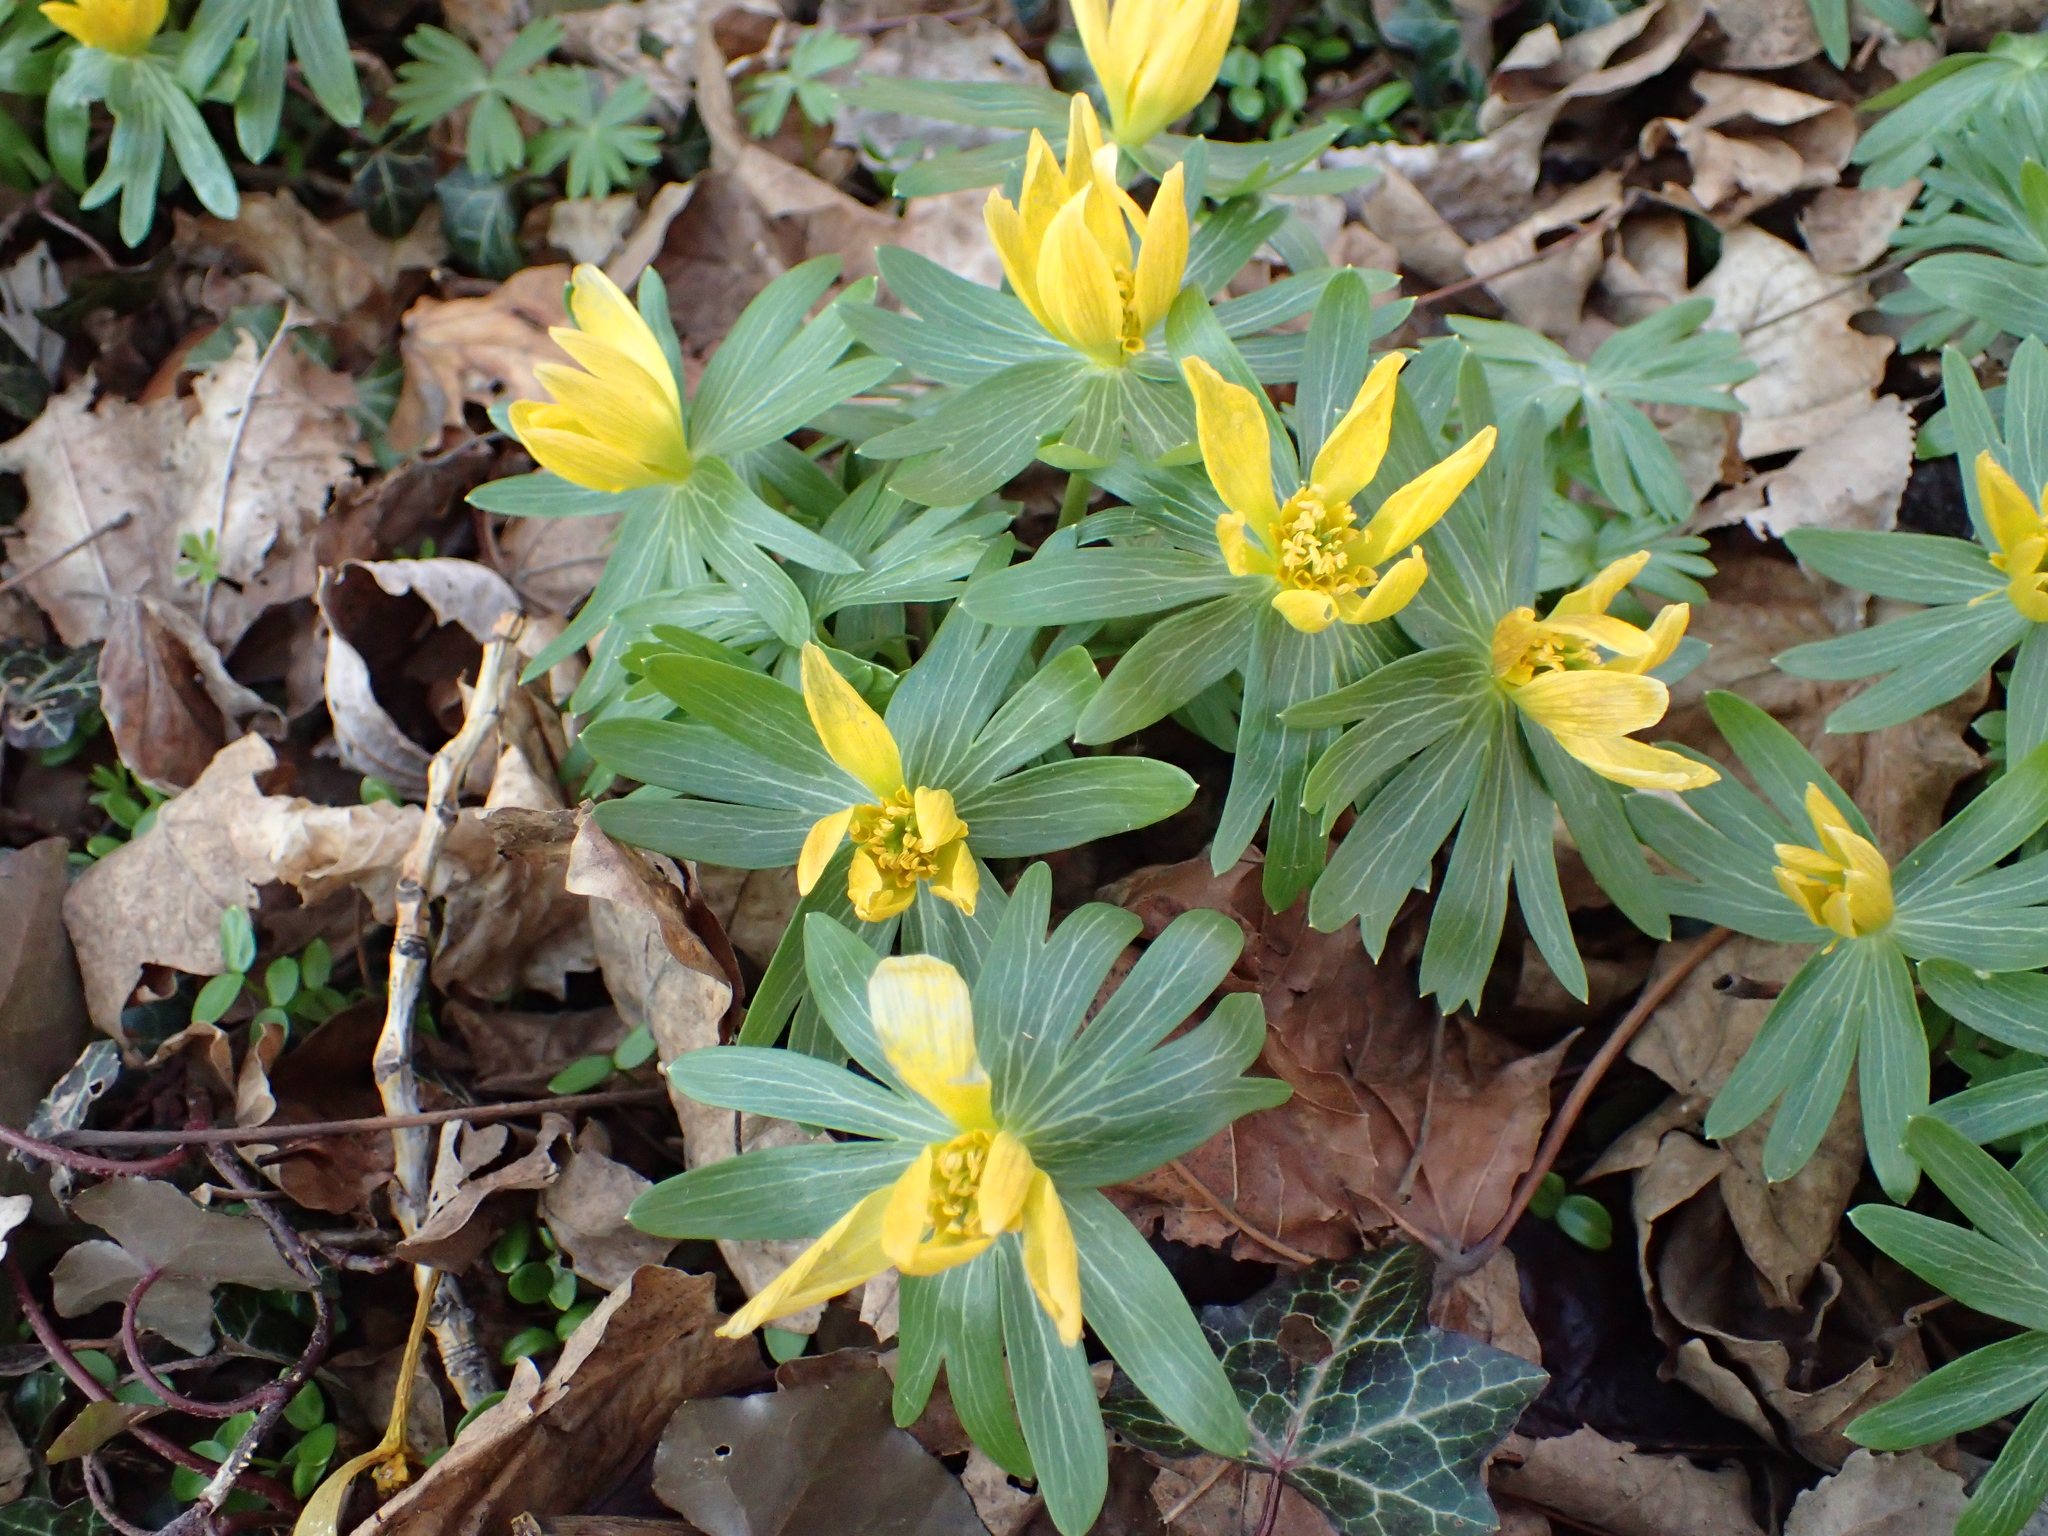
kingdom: Plantae
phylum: Tracheophyta
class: Magnoliopsida
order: Ranunculales
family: Ranunculaceae
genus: Eranthis
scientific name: Eranthis hyemalis
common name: Winter aconite
